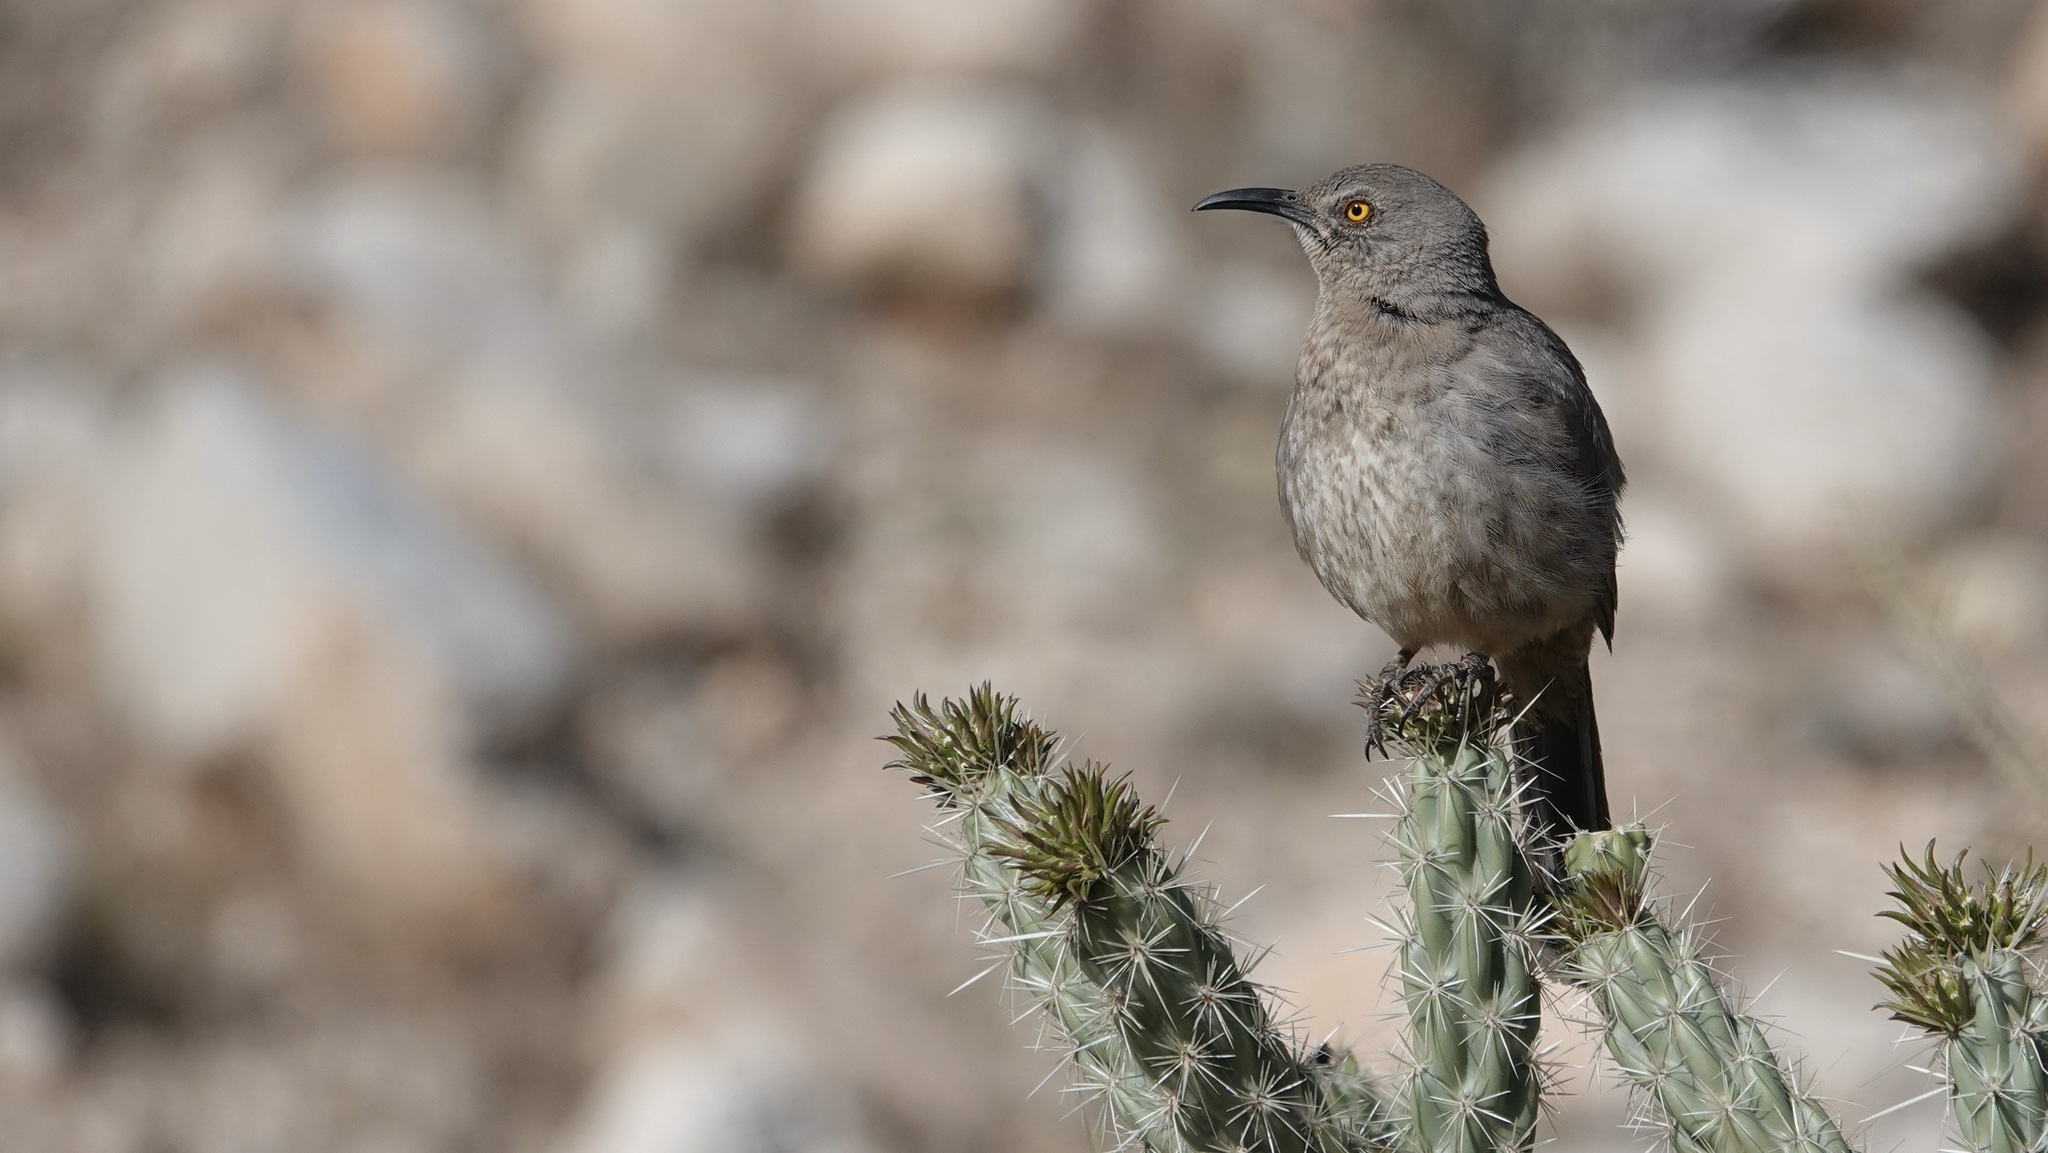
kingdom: Animalia
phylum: Chordata
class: Aves
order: Passeriformes
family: Mimidae
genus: Toxostoma
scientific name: Toxostoma curvirostre
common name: Curve-billed thrasher
